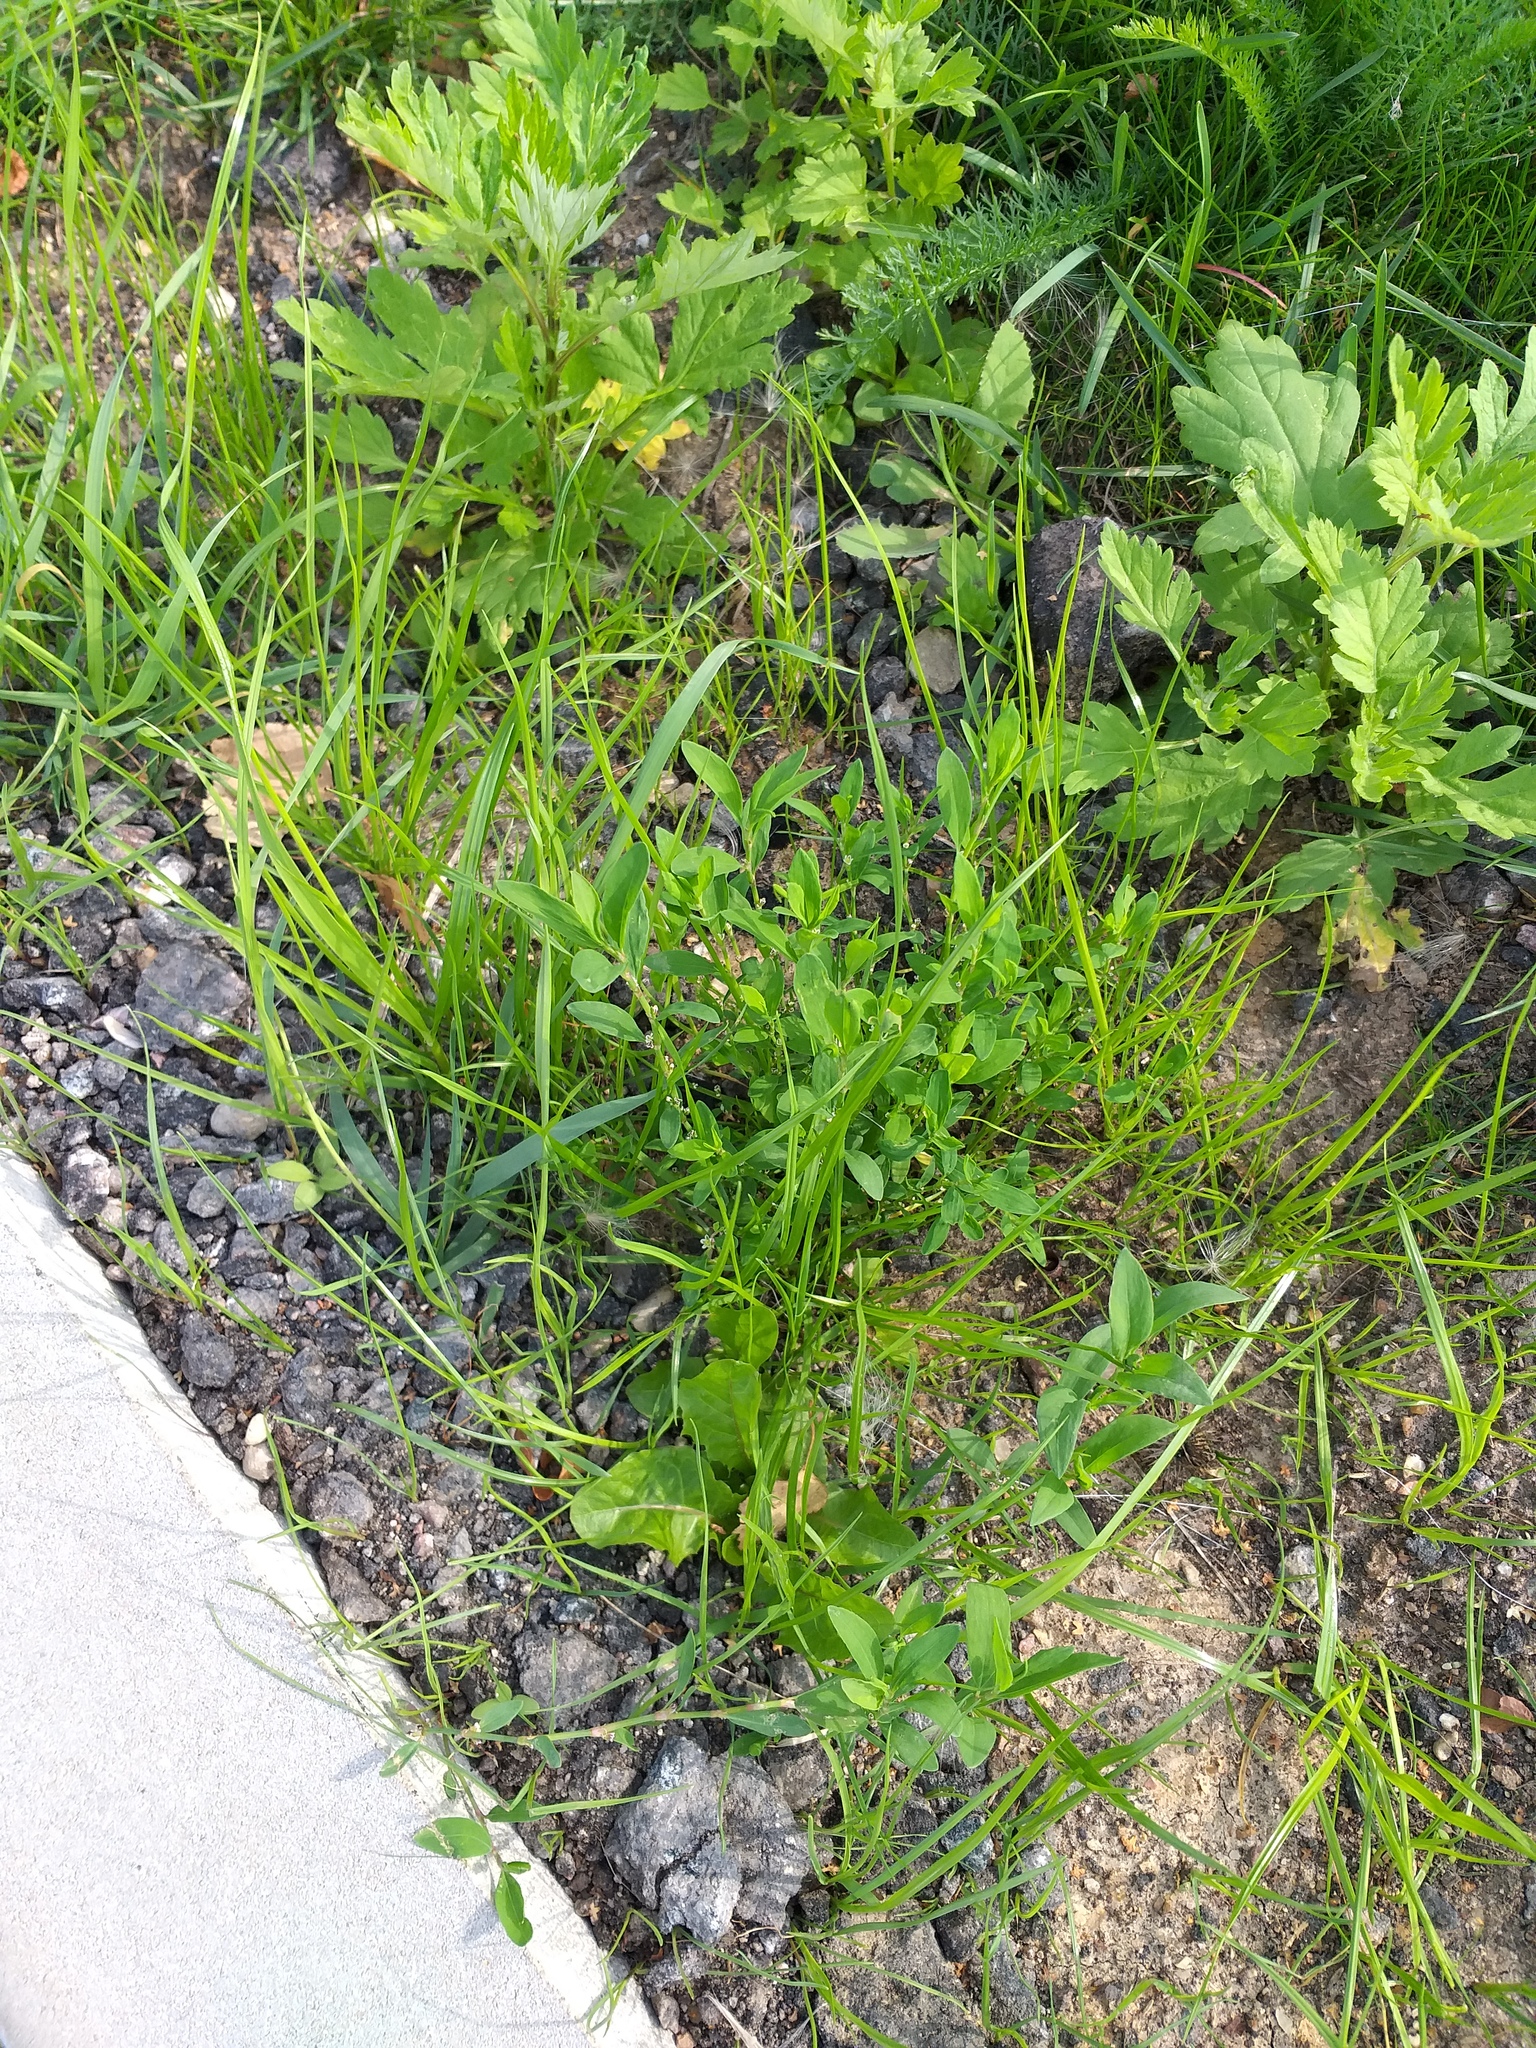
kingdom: Plantae
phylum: Tracheophyta
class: Magnoliopsida
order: Caryophyllales
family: Polygonaceae
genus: Polygonum
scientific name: Polygonum
